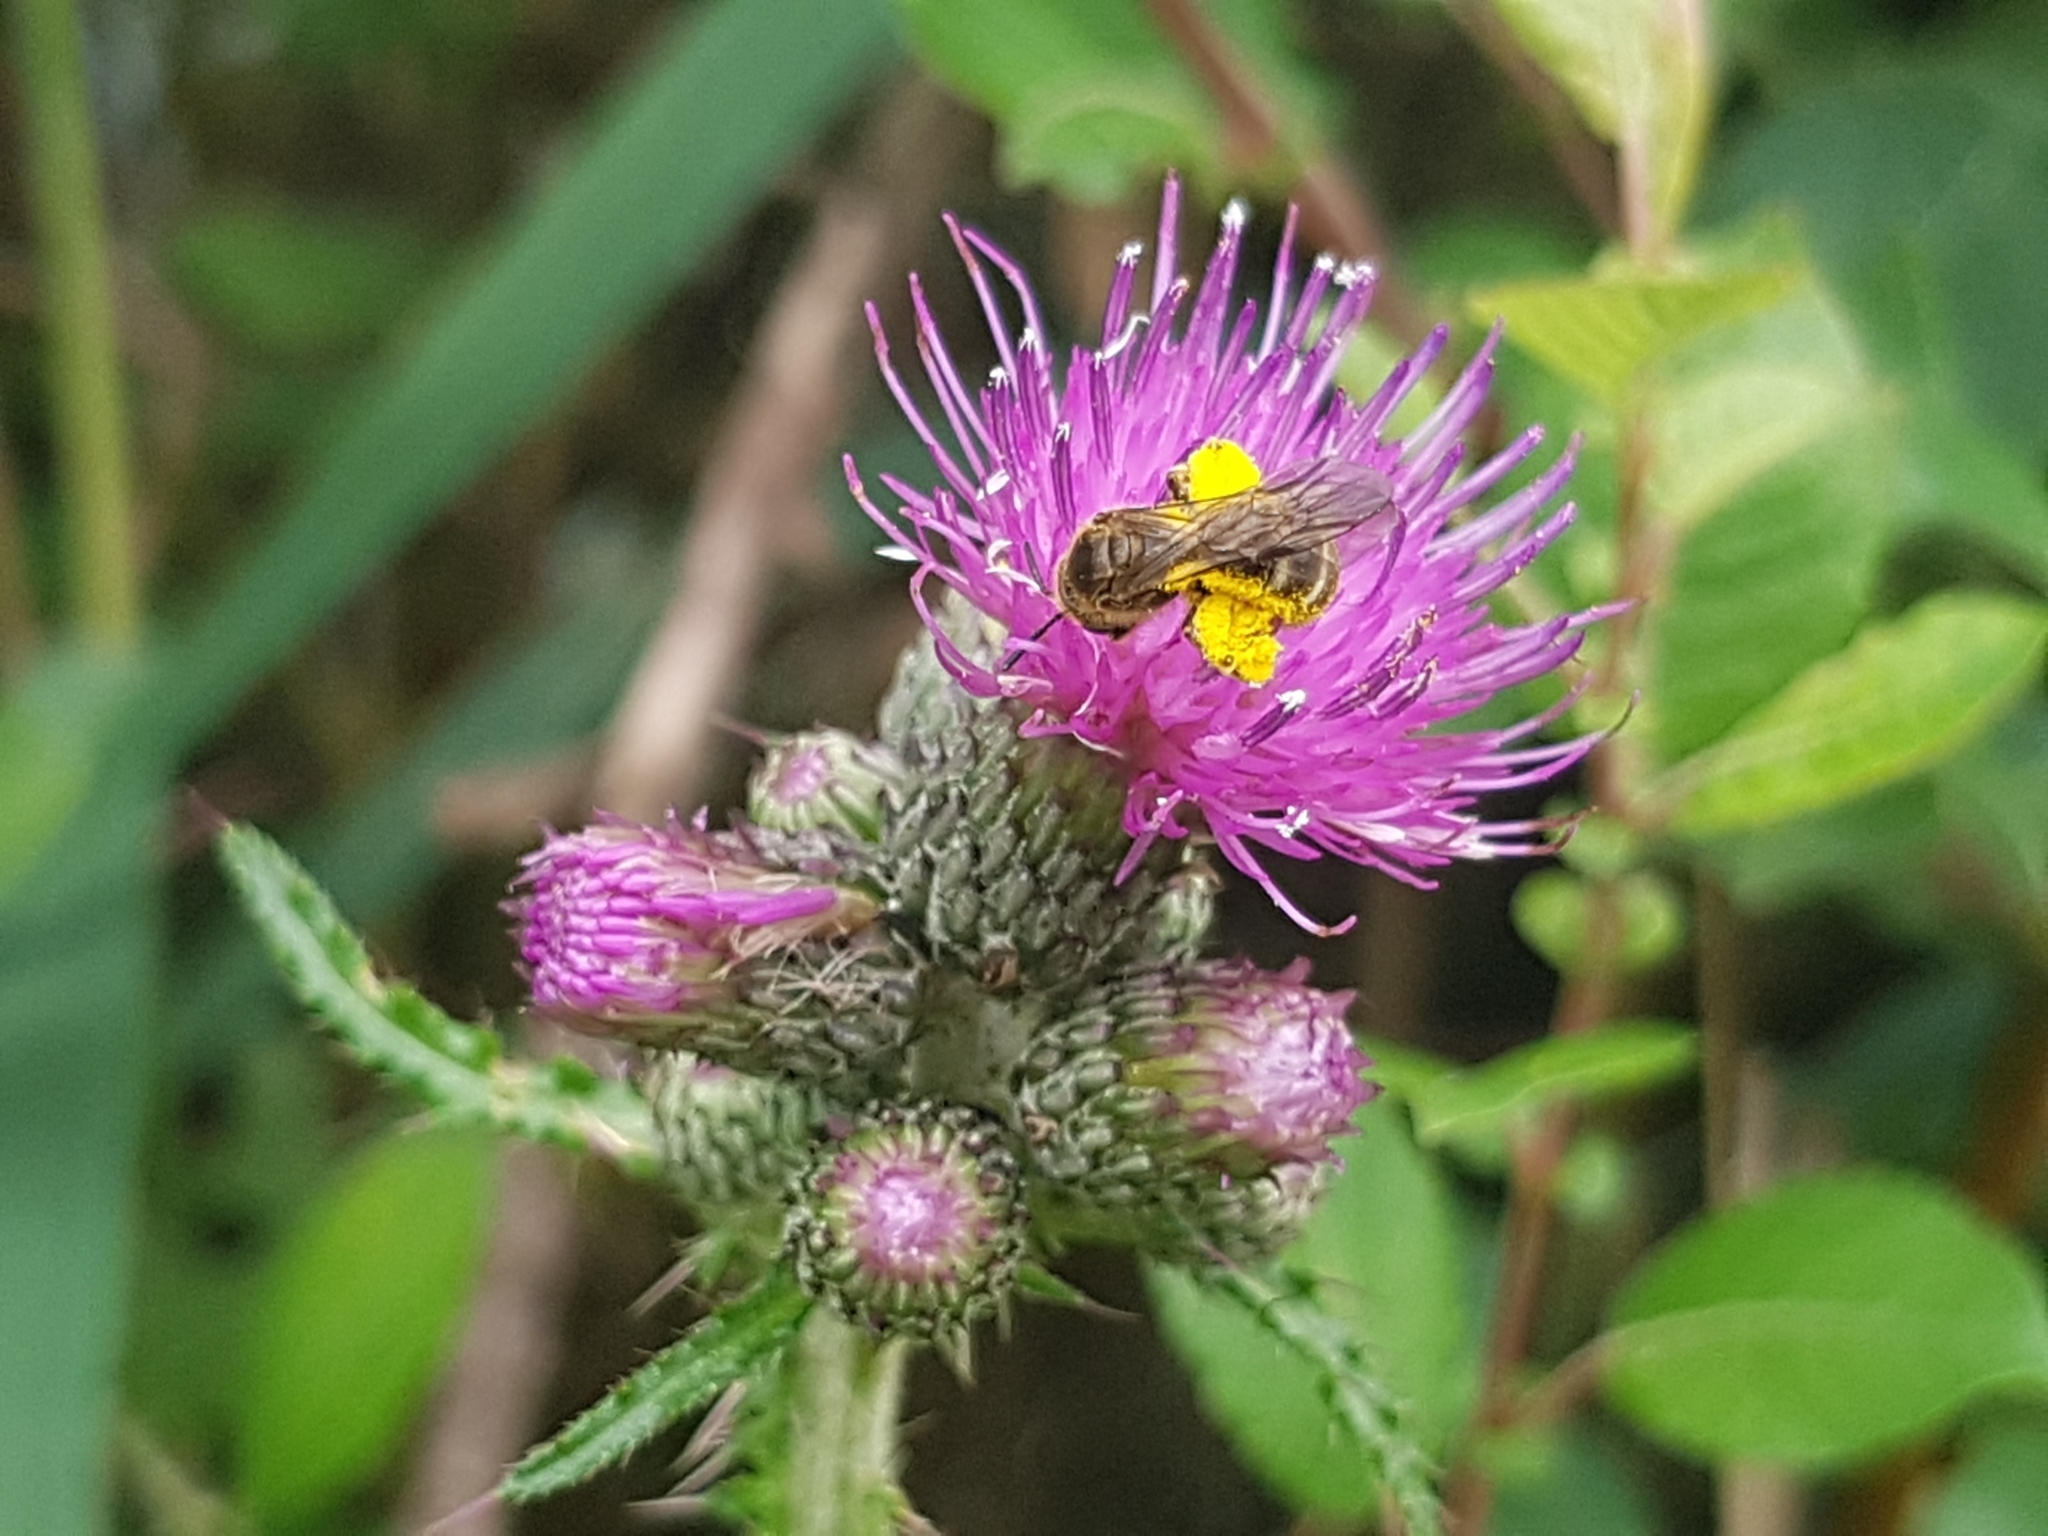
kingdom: Plantae
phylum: Tracheophyta
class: Magnoliopsida
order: Asterales
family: Asteraceae
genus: Cirsium
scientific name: Cirsium palustre
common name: Marsh thistle
